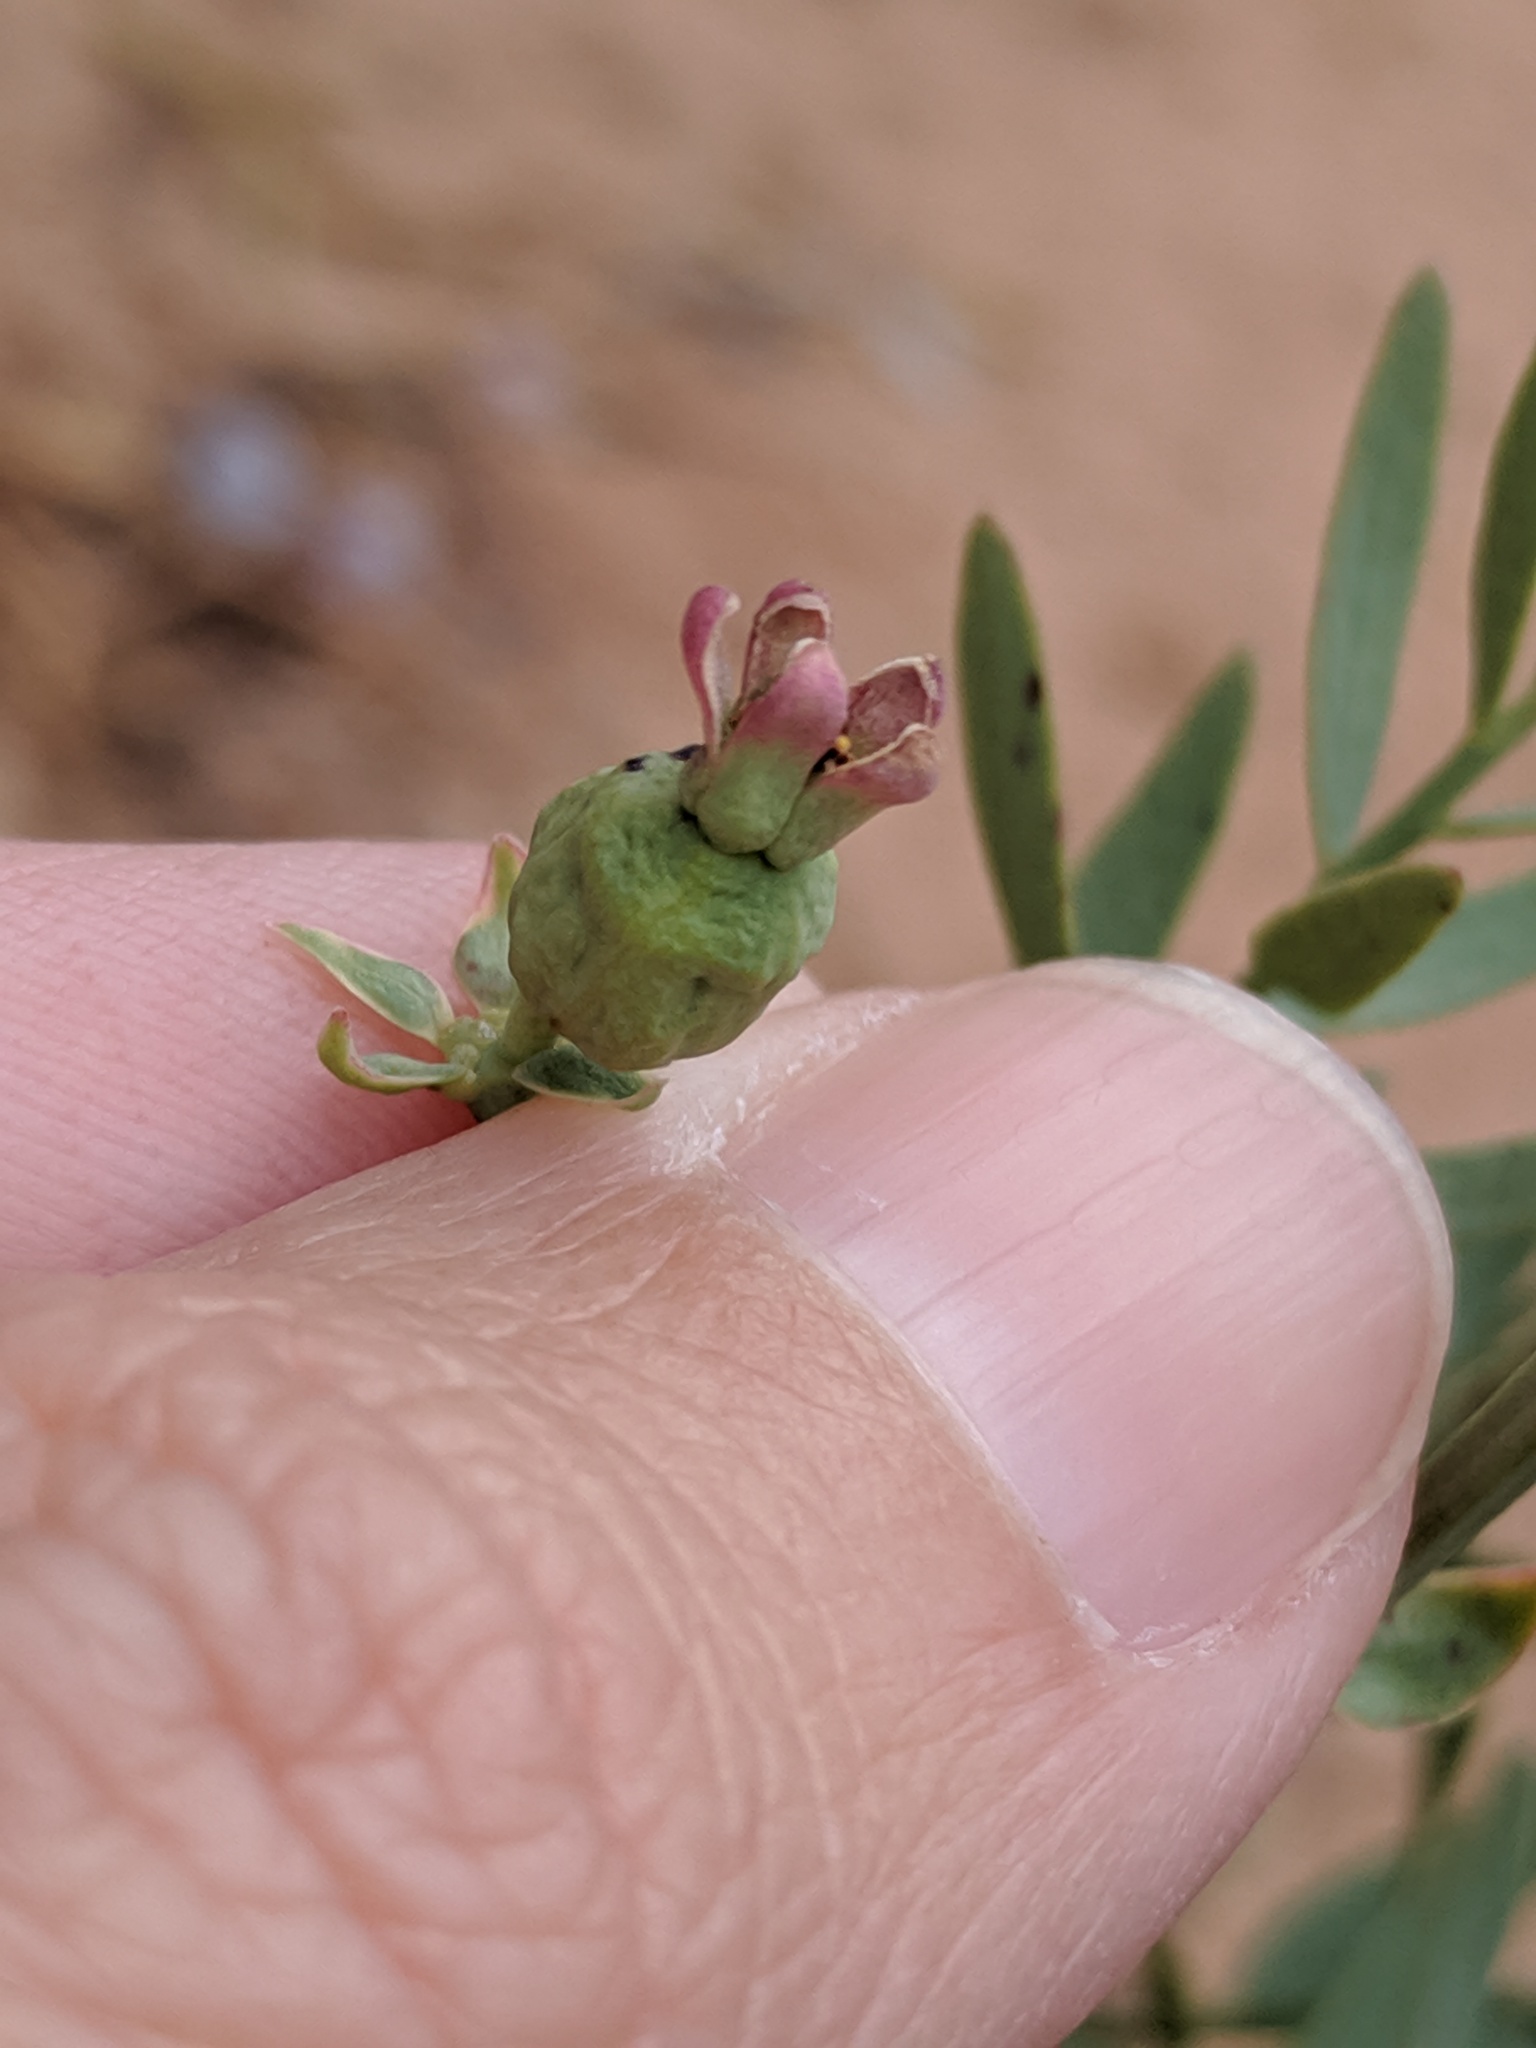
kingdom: Plantae
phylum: Tracheophyta
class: Magnoliopsida
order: Santalales
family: Comandraceae
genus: Comandra
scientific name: Comandra umbellata
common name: Bastard toadflax
